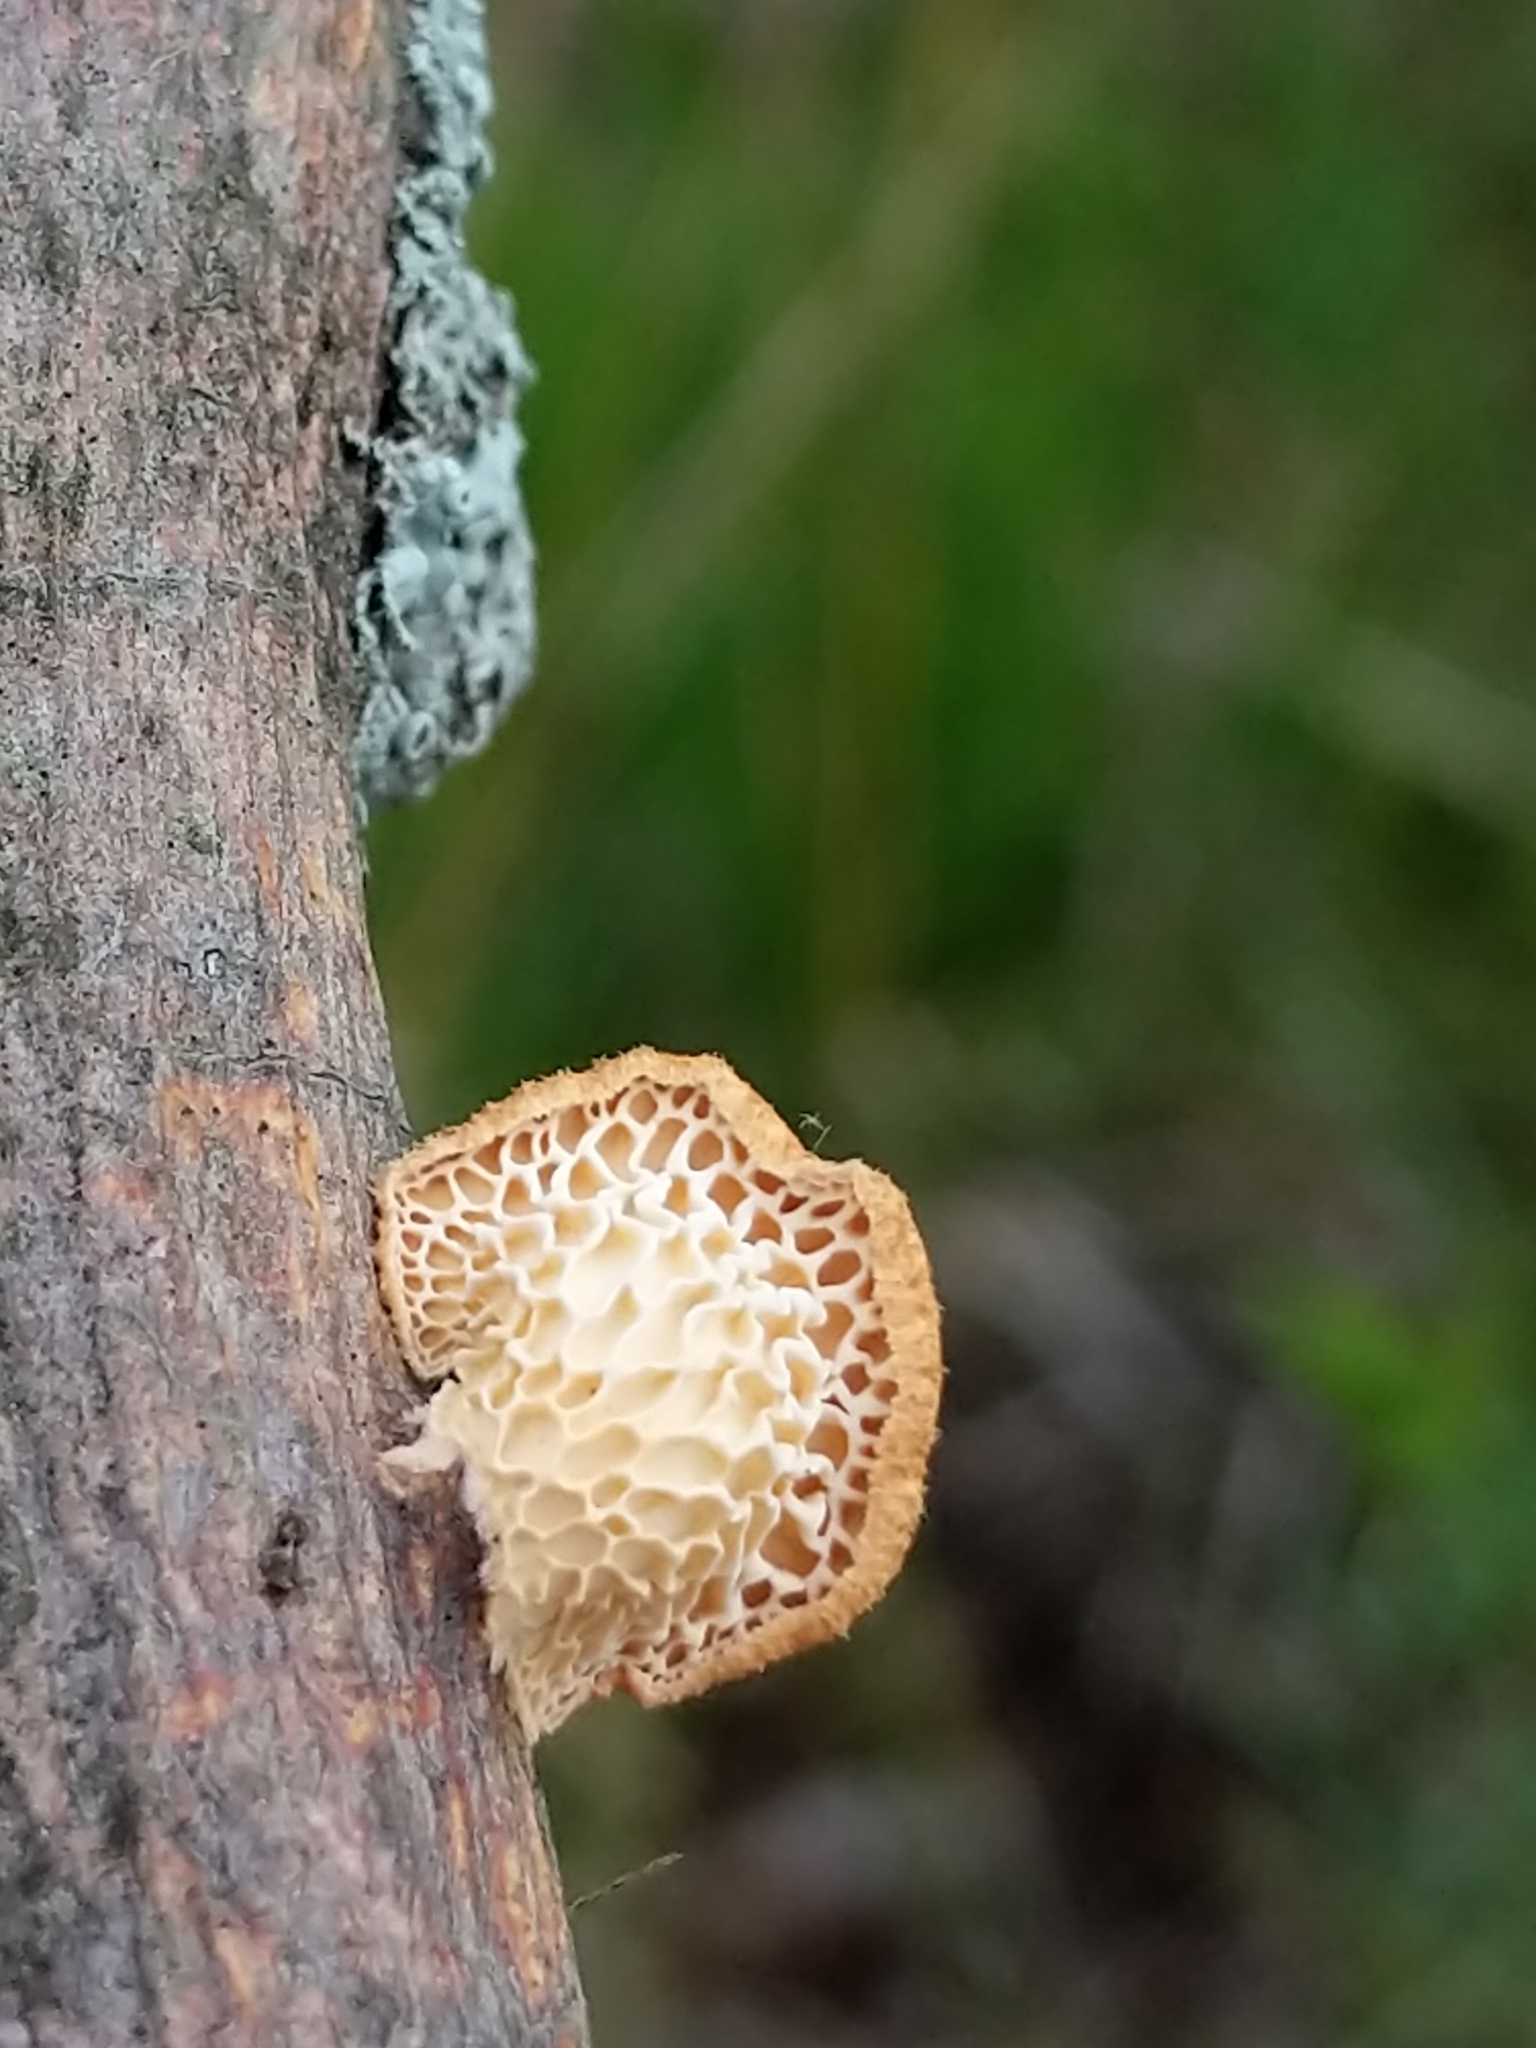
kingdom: Fungi
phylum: Basidiomycota
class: Agaricomycetes
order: Polyporales
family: Polyporaceae
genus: Neofavolus
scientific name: Neofavolus alveolaris
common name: Hexagonal-pored polypore
